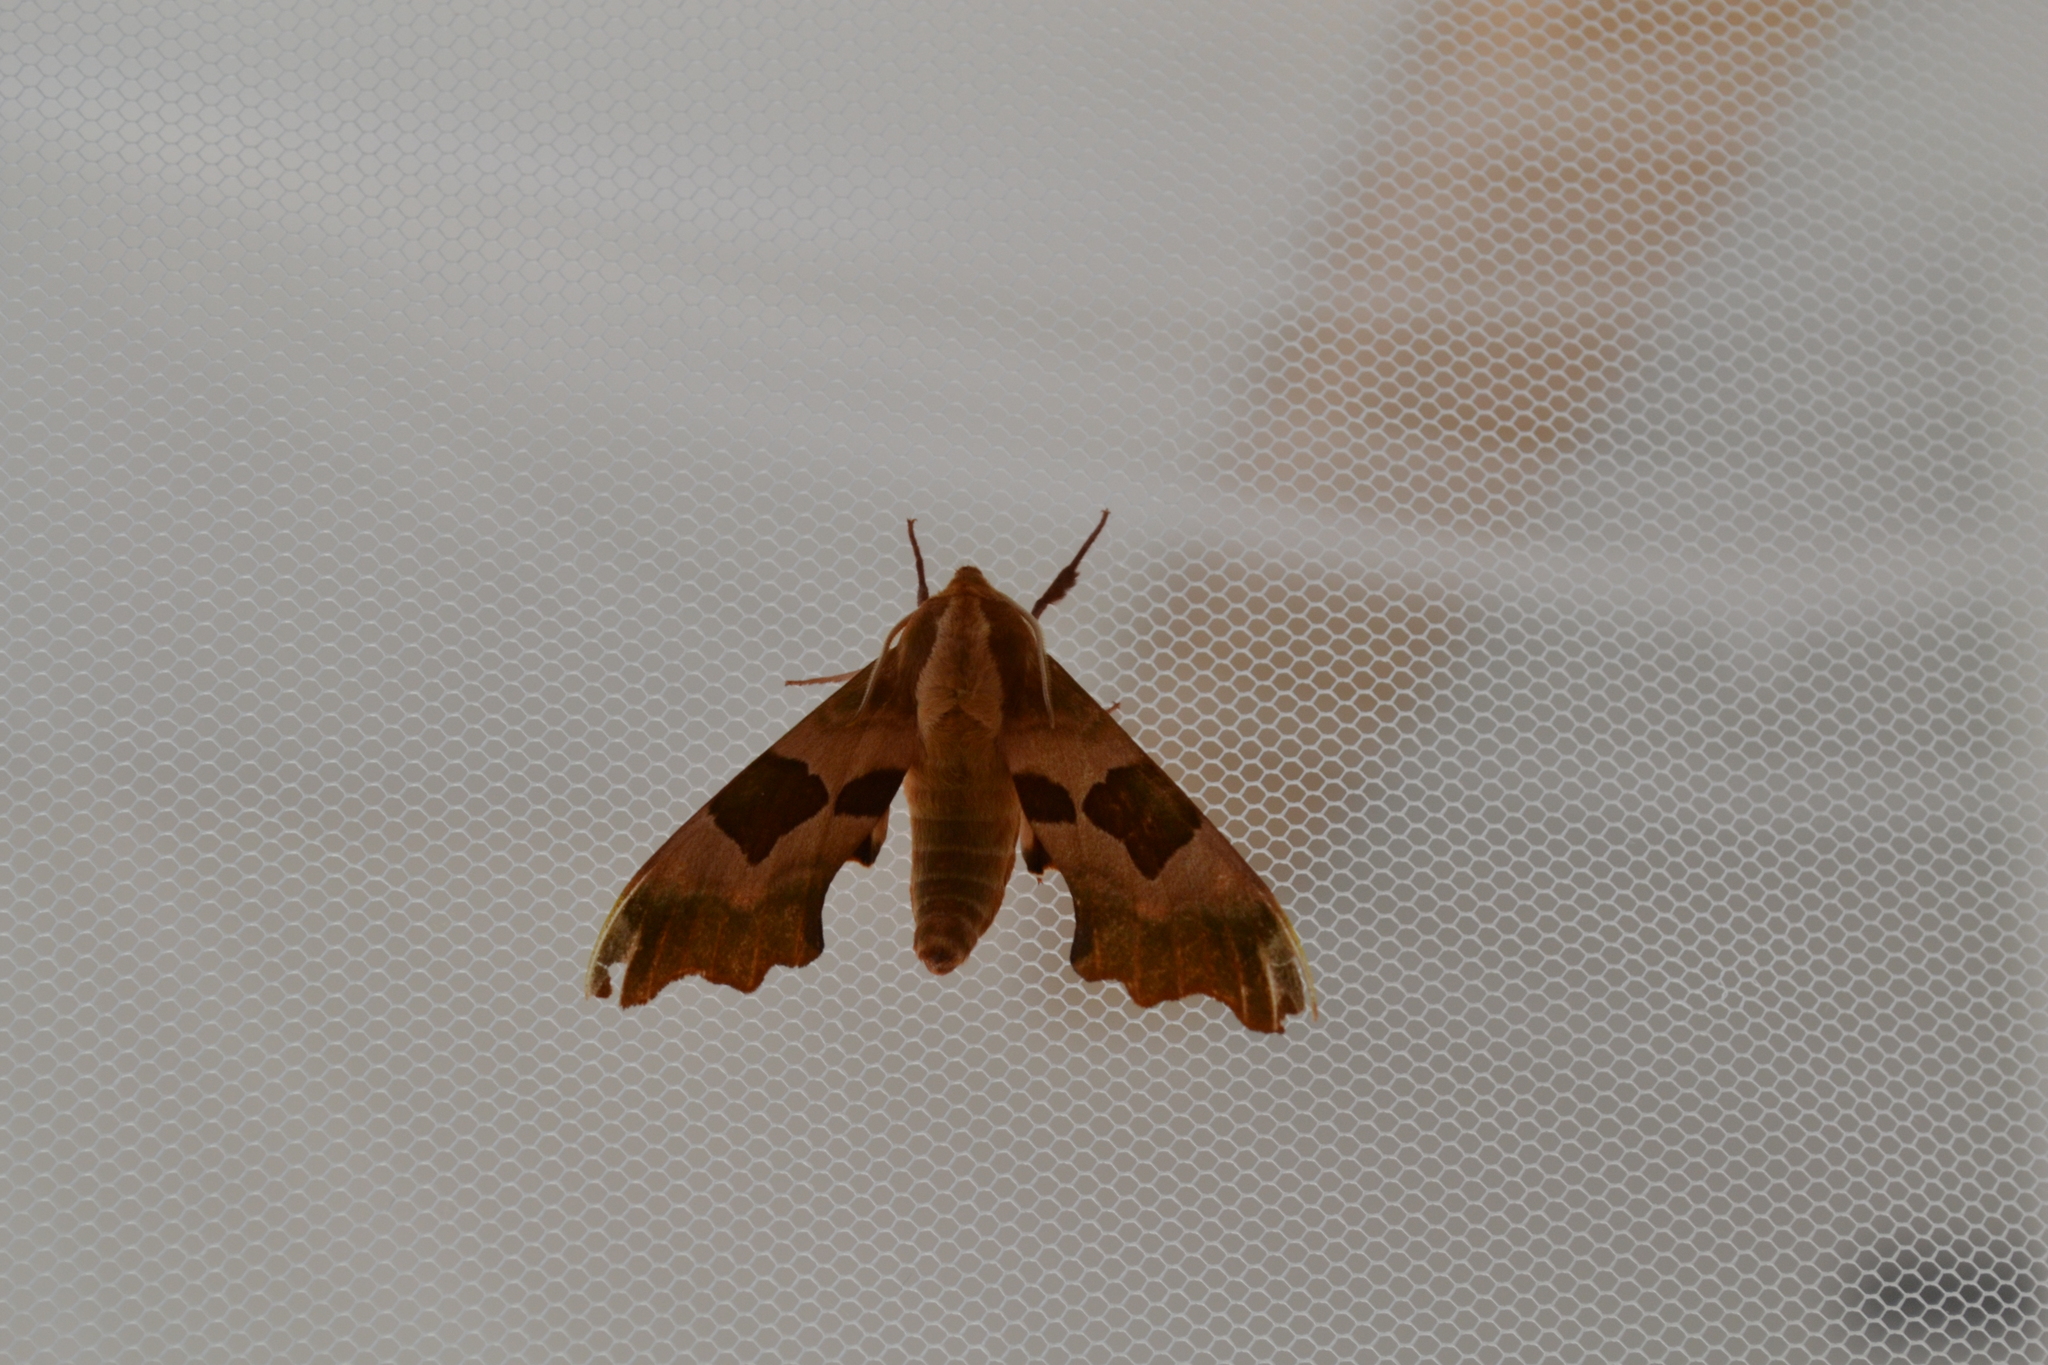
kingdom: Animalia
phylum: Arthropoda
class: Insecta
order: Lepidoptera
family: Sphingidae
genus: Mimas
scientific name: Mimas tiliae
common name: Lime hawk-moth
